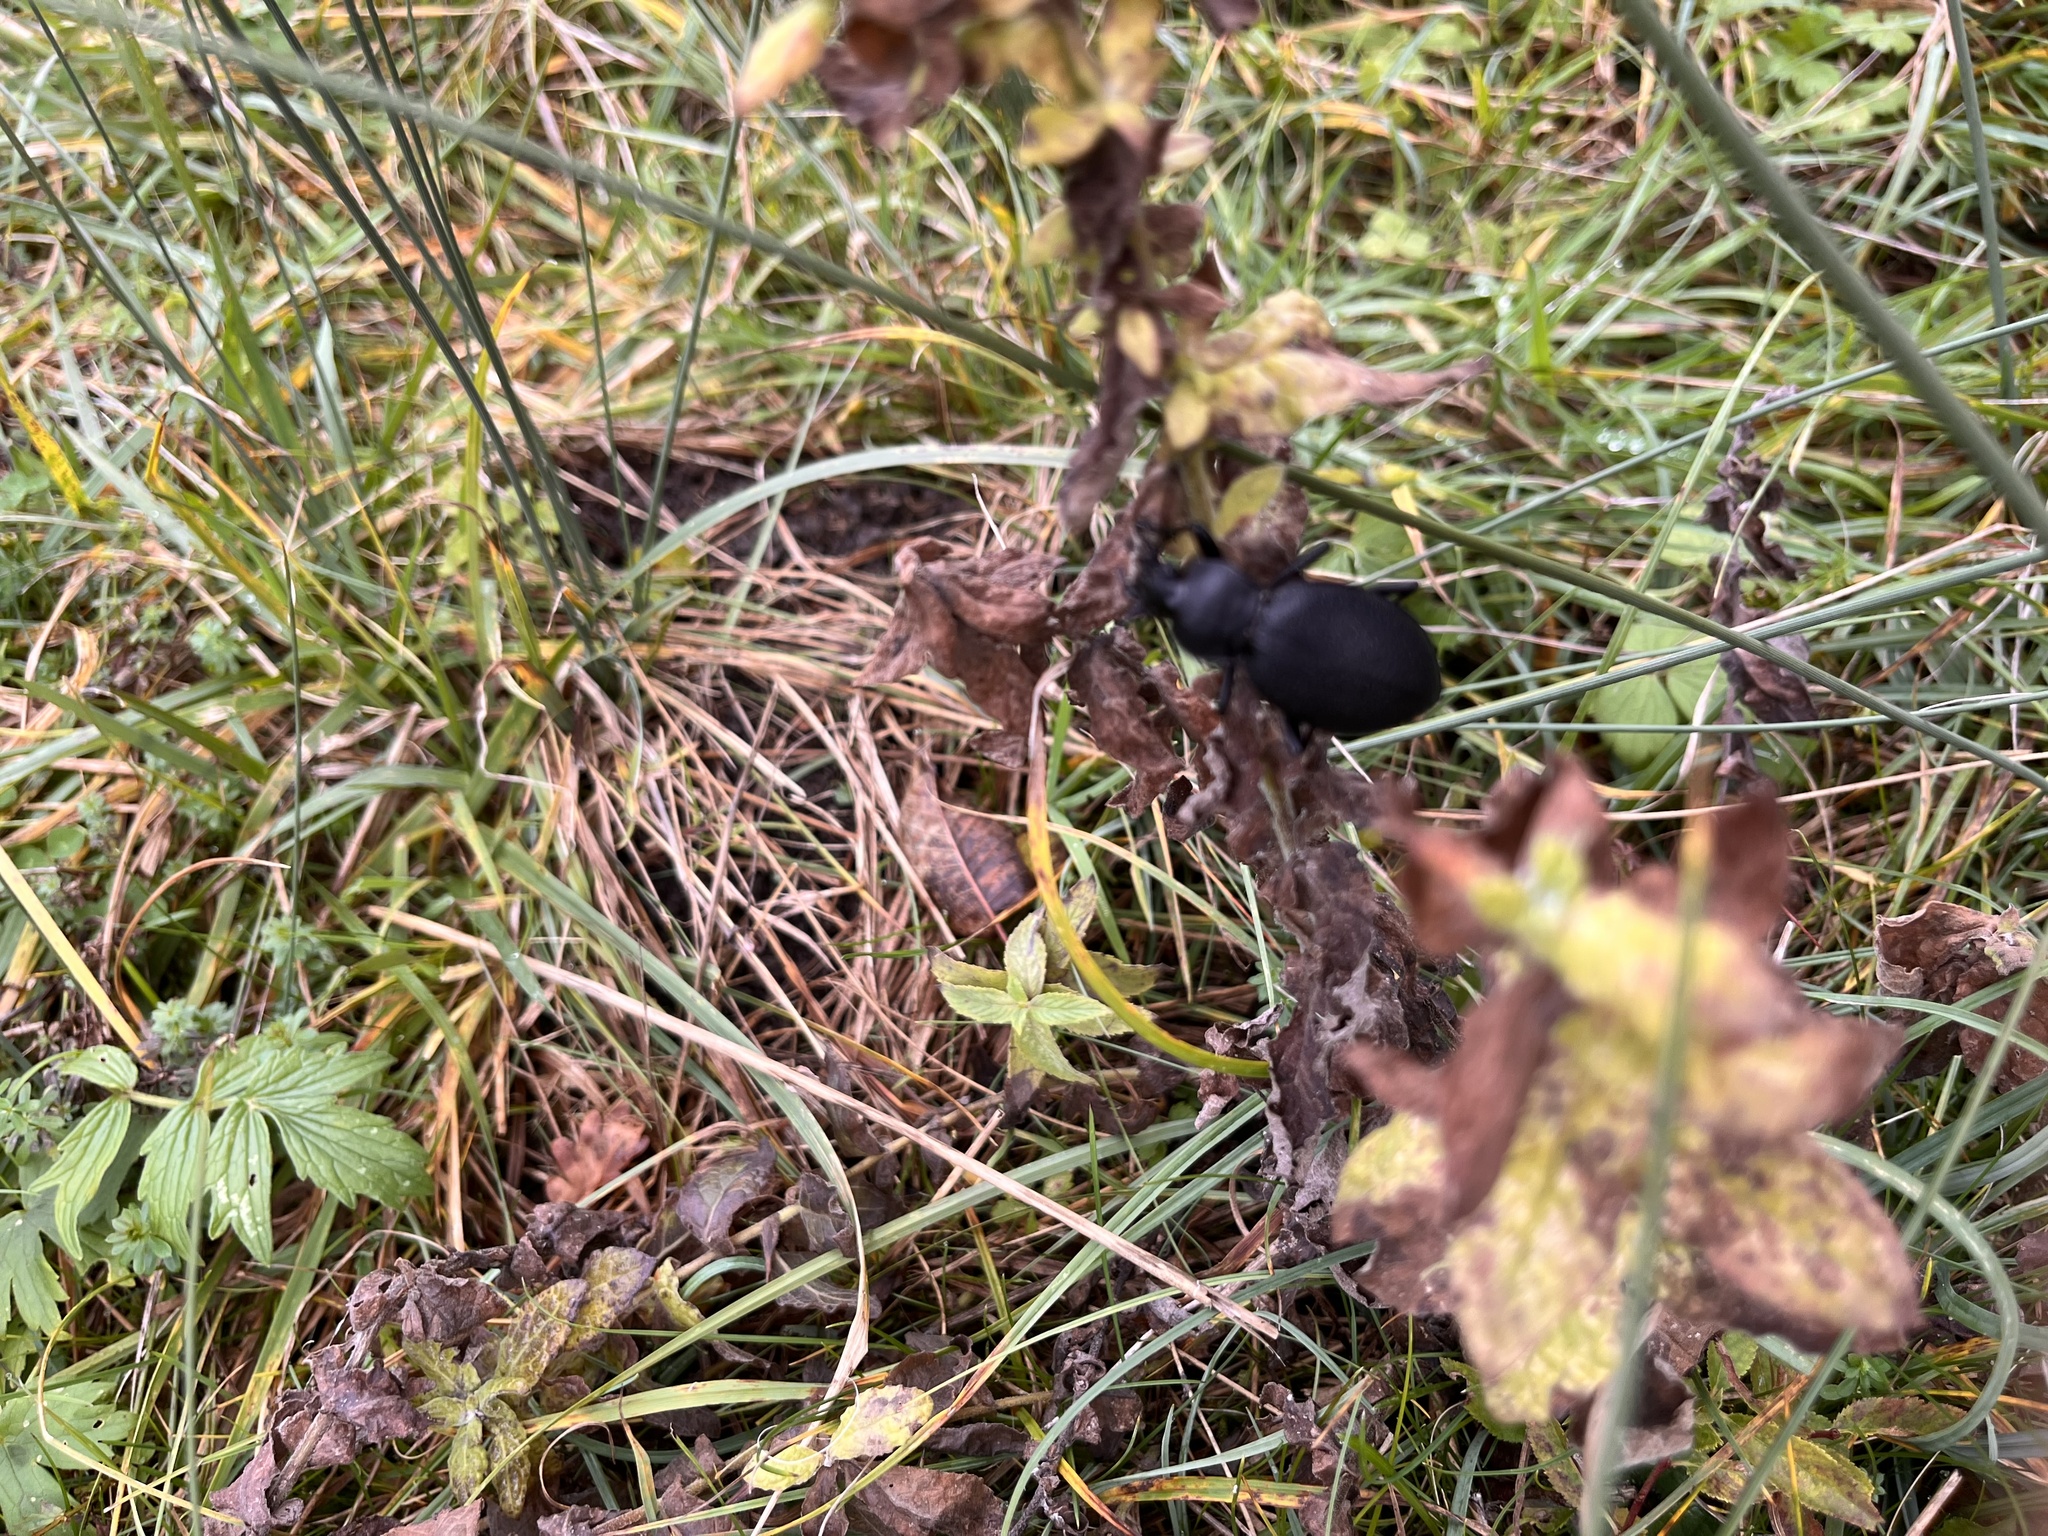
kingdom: Animalia
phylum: Arthropoda
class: Insecta
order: Coleoptera
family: Carabidae
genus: Carabus
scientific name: Carabus coriaceus
